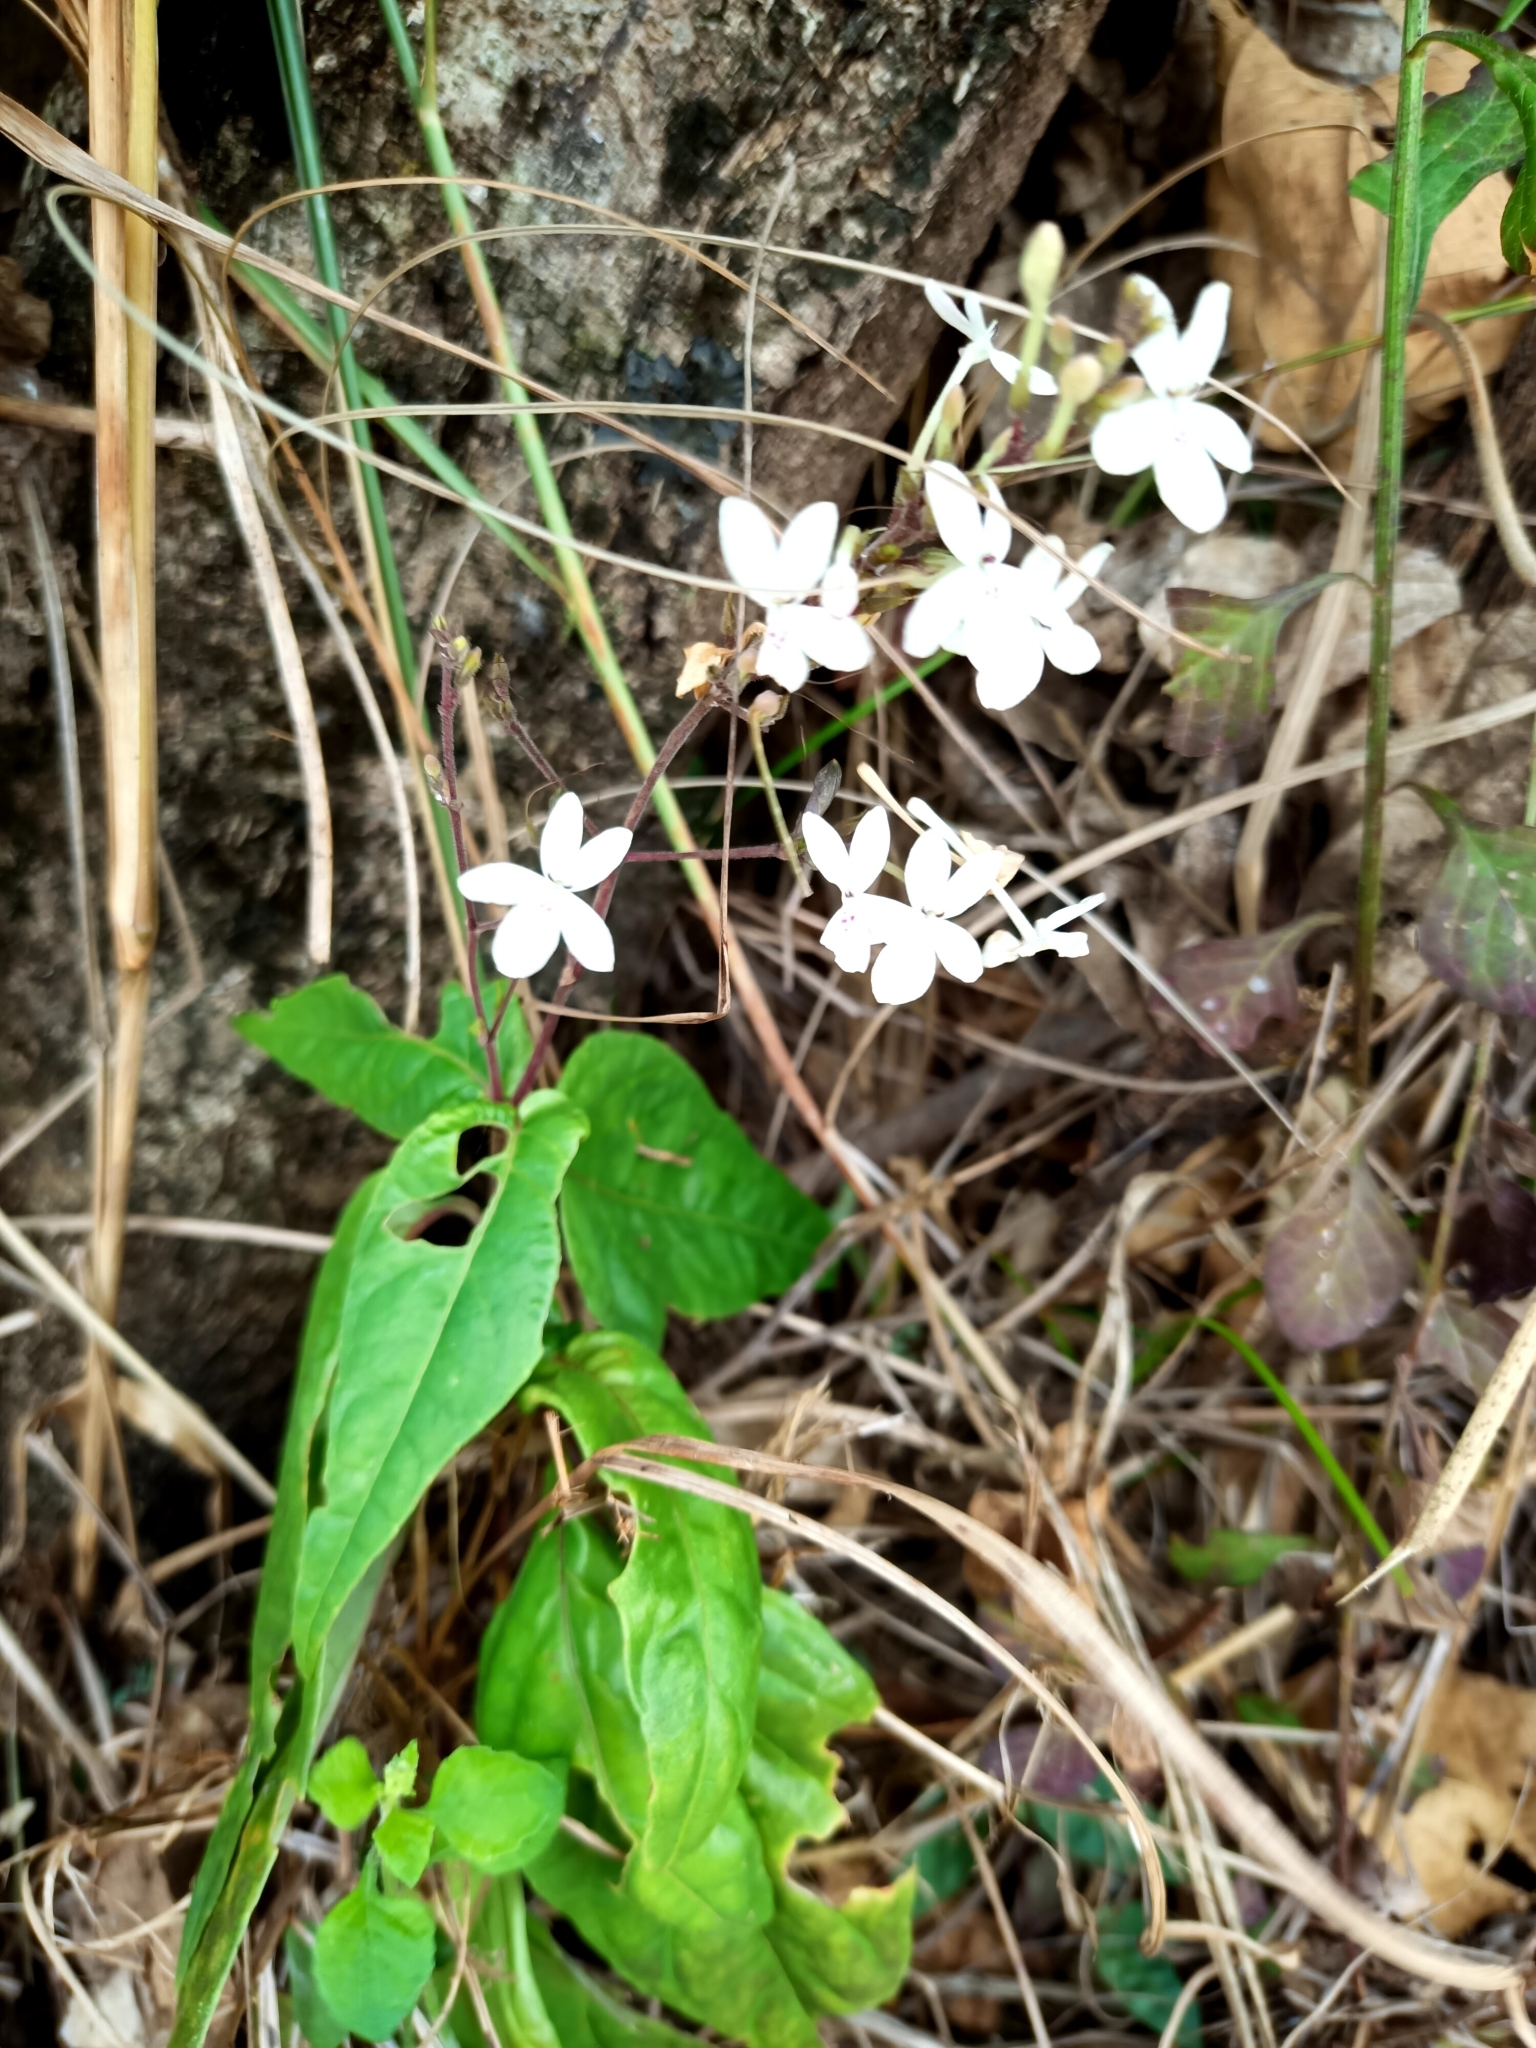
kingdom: Plantae
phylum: Tracheophyta
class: Magnoliopsida
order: Lamiales
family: Acanthaceae
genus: Pseuderanthemum
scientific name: Pseuderanthemum variabile
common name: Night and afternoon
